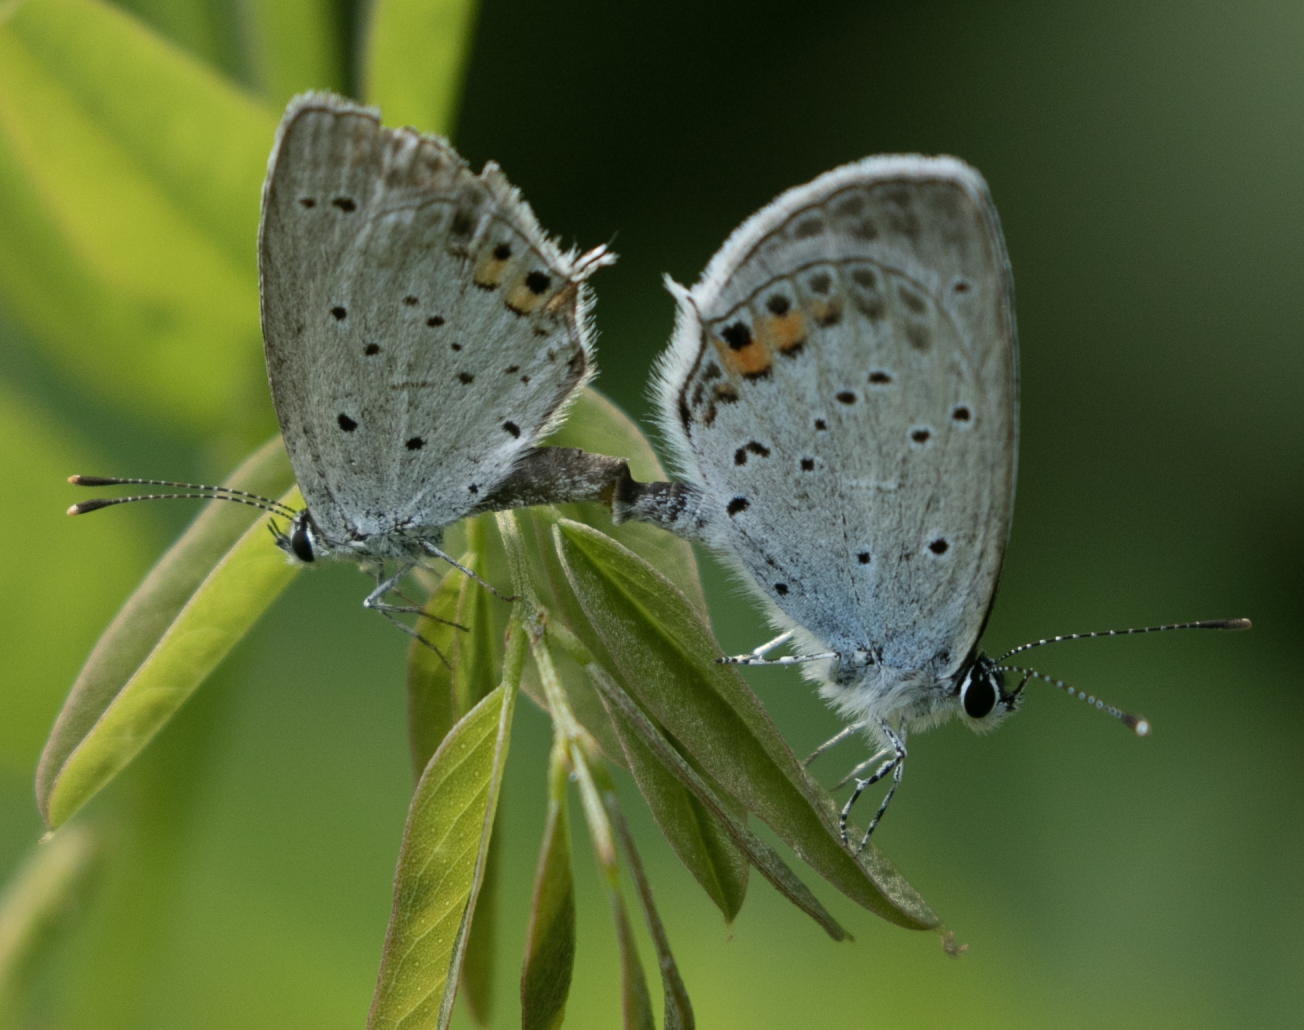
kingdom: Animalia
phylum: Arthropoda
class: Insecta
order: Lepidoptera
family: Lycaenidae
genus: Elkalyce
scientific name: Elkalyce argiades
